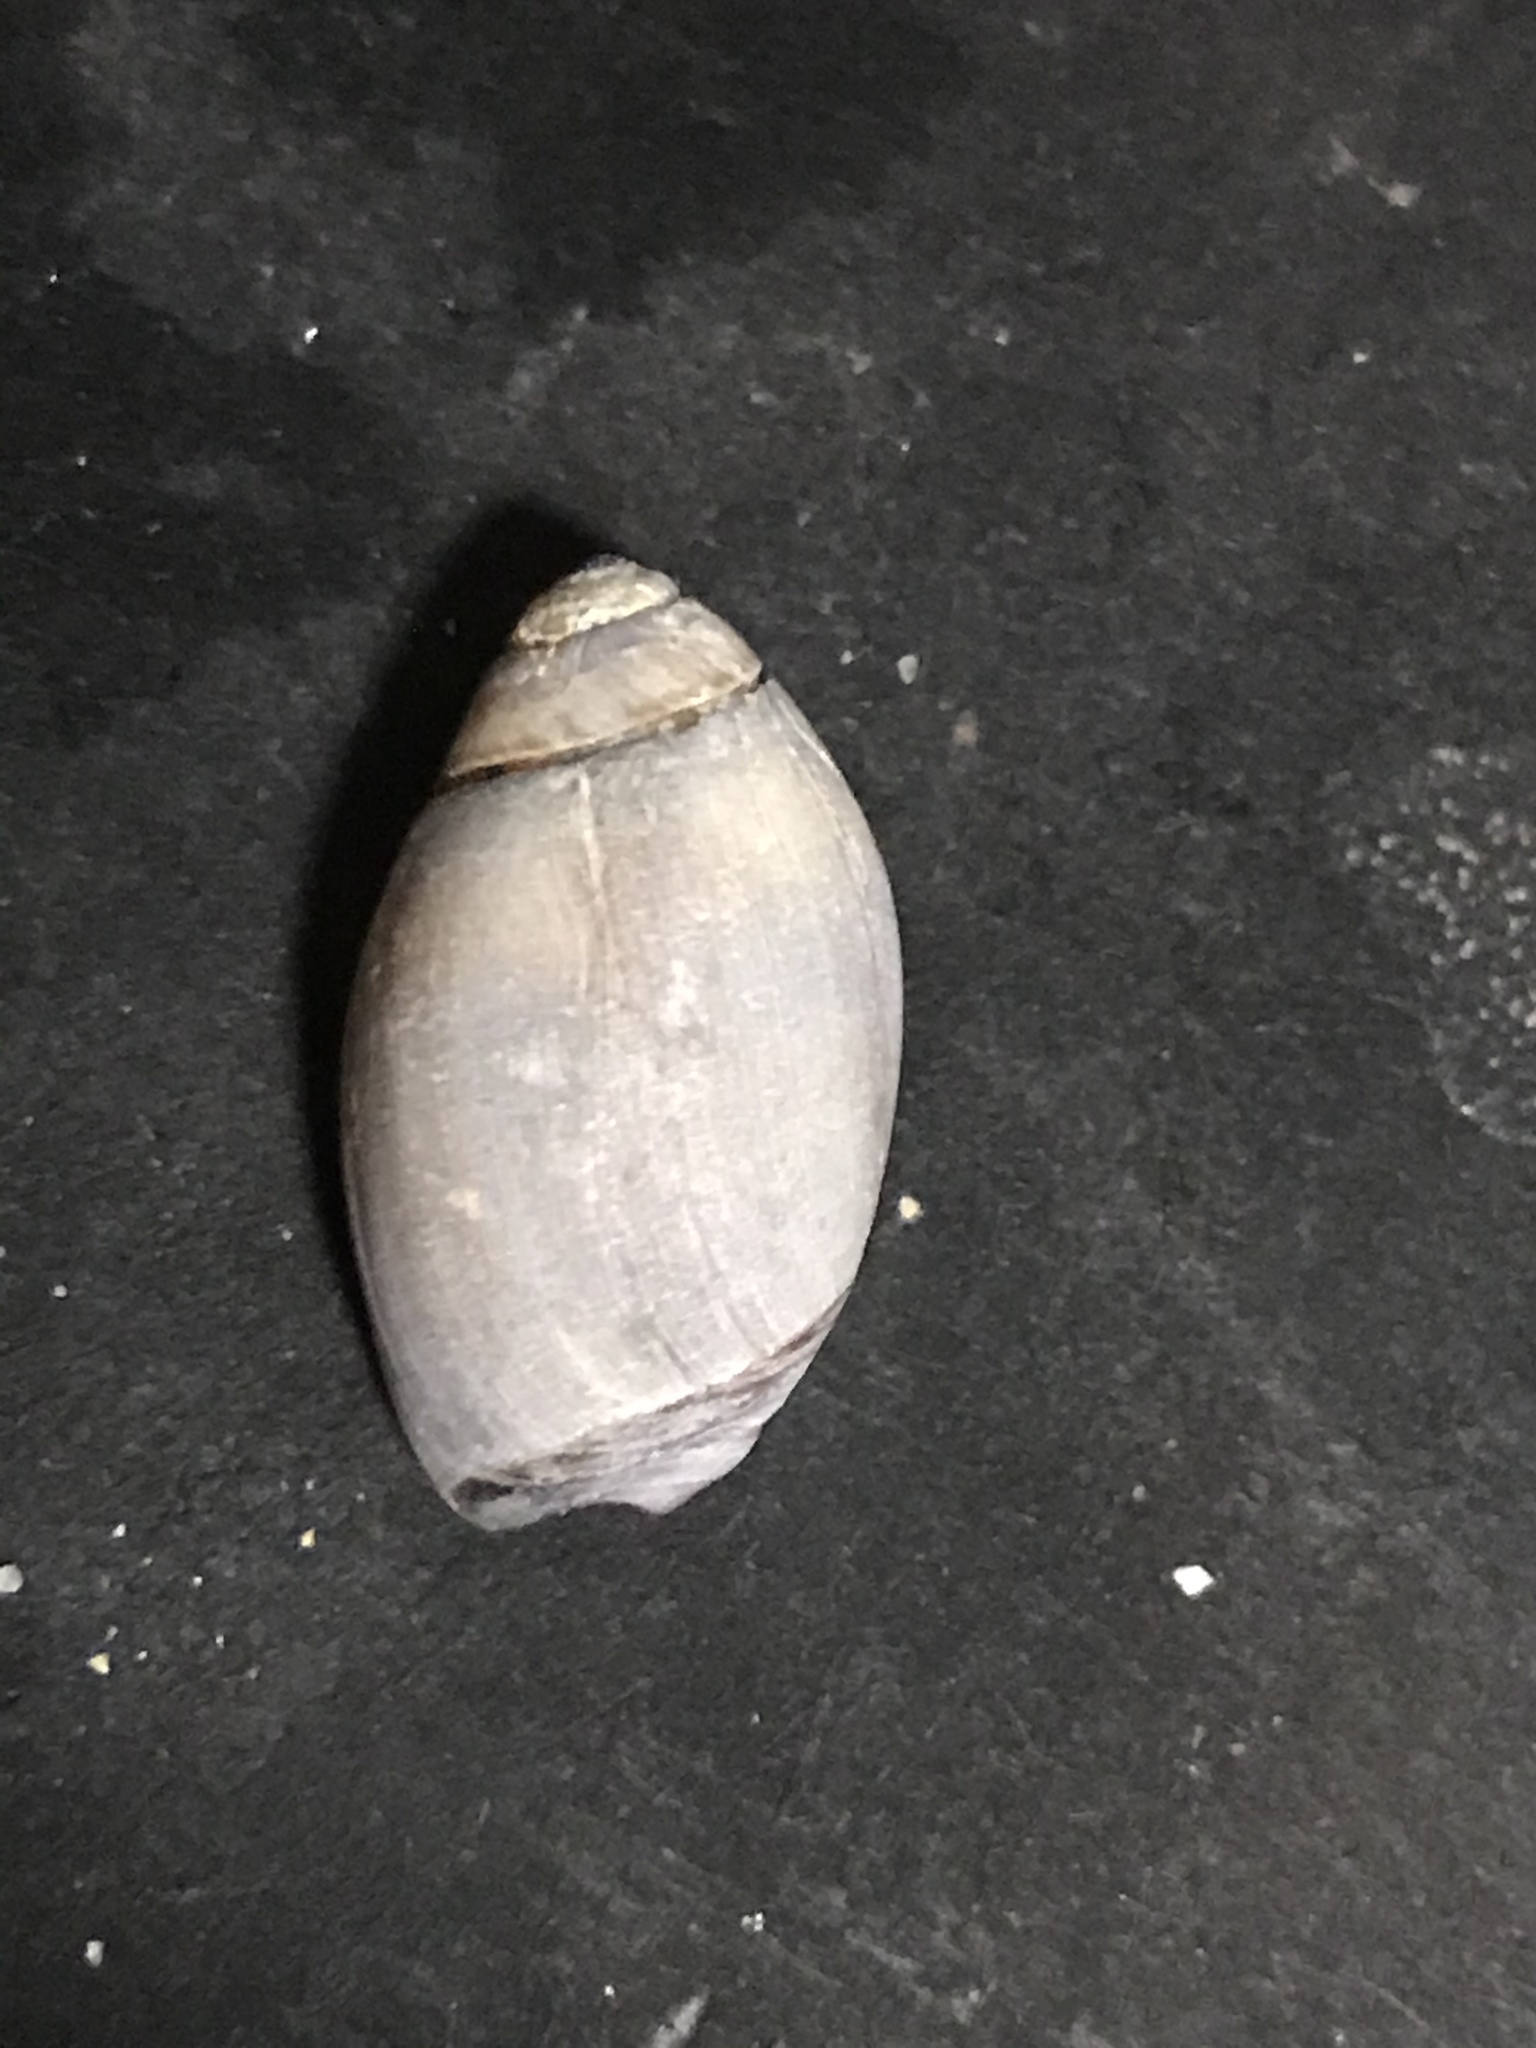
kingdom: Animalia
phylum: Mollusca
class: Gastropoda
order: Neogastropoda
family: Olividae
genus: Callianax
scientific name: Callianax biplicata
